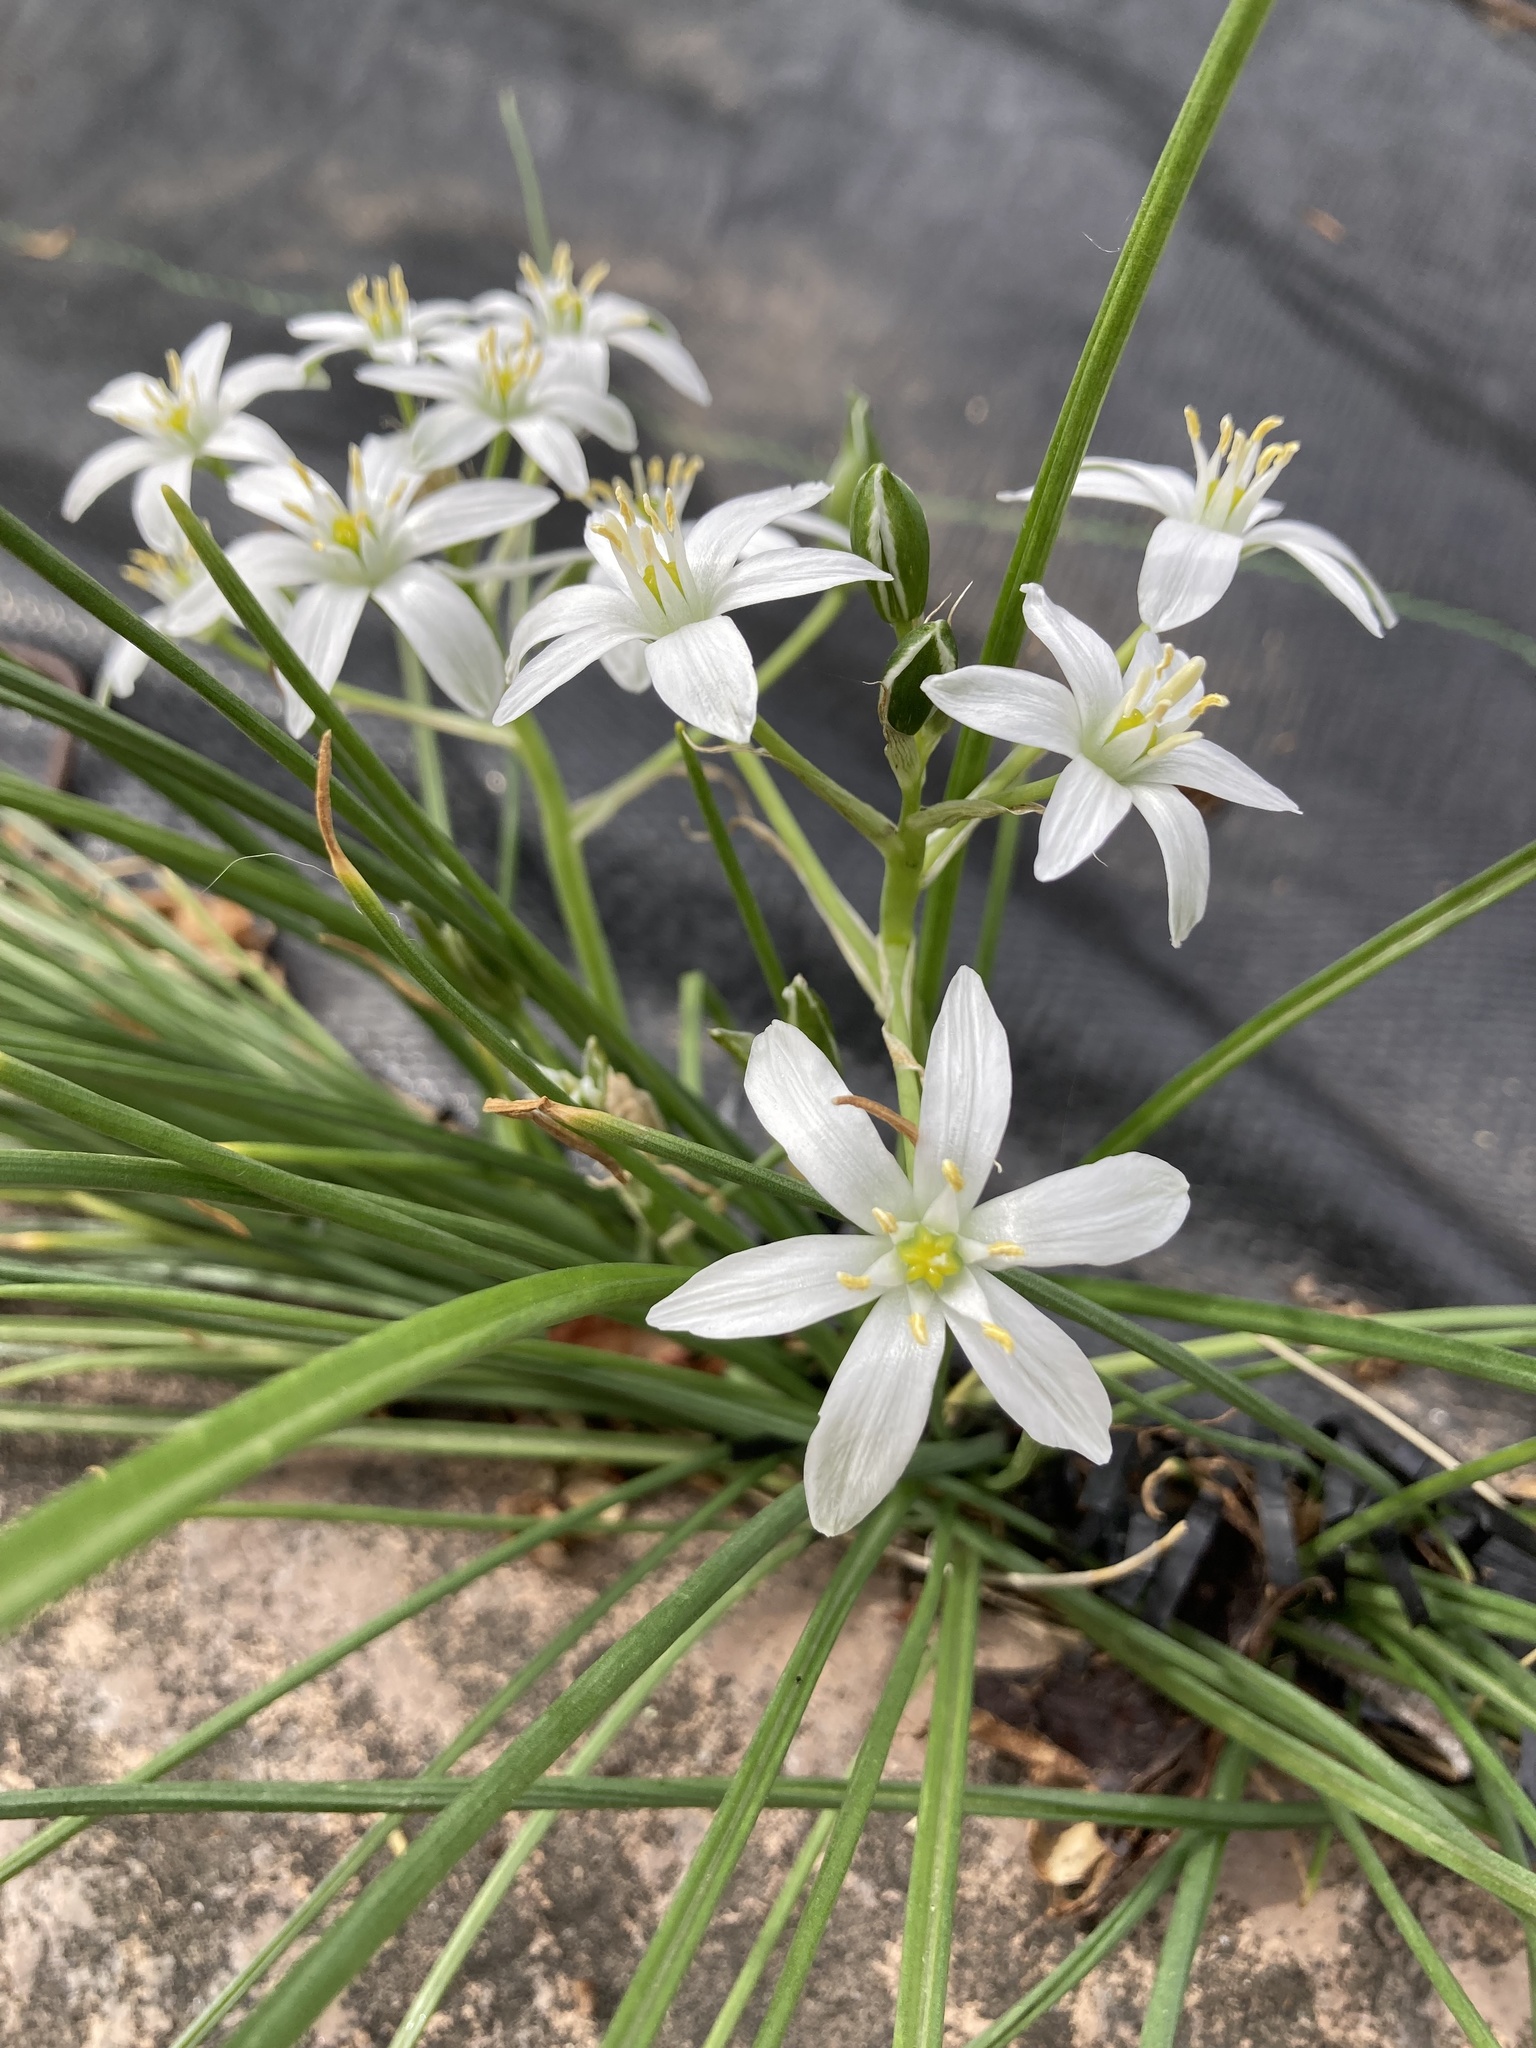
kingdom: Plantae
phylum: Tracheophyta
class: Liliopsida
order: Asparagales
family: Asparagaceae
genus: Ornithogalum
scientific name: Ornithogalum umbellatum
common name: Garden star-of-bethlehem
